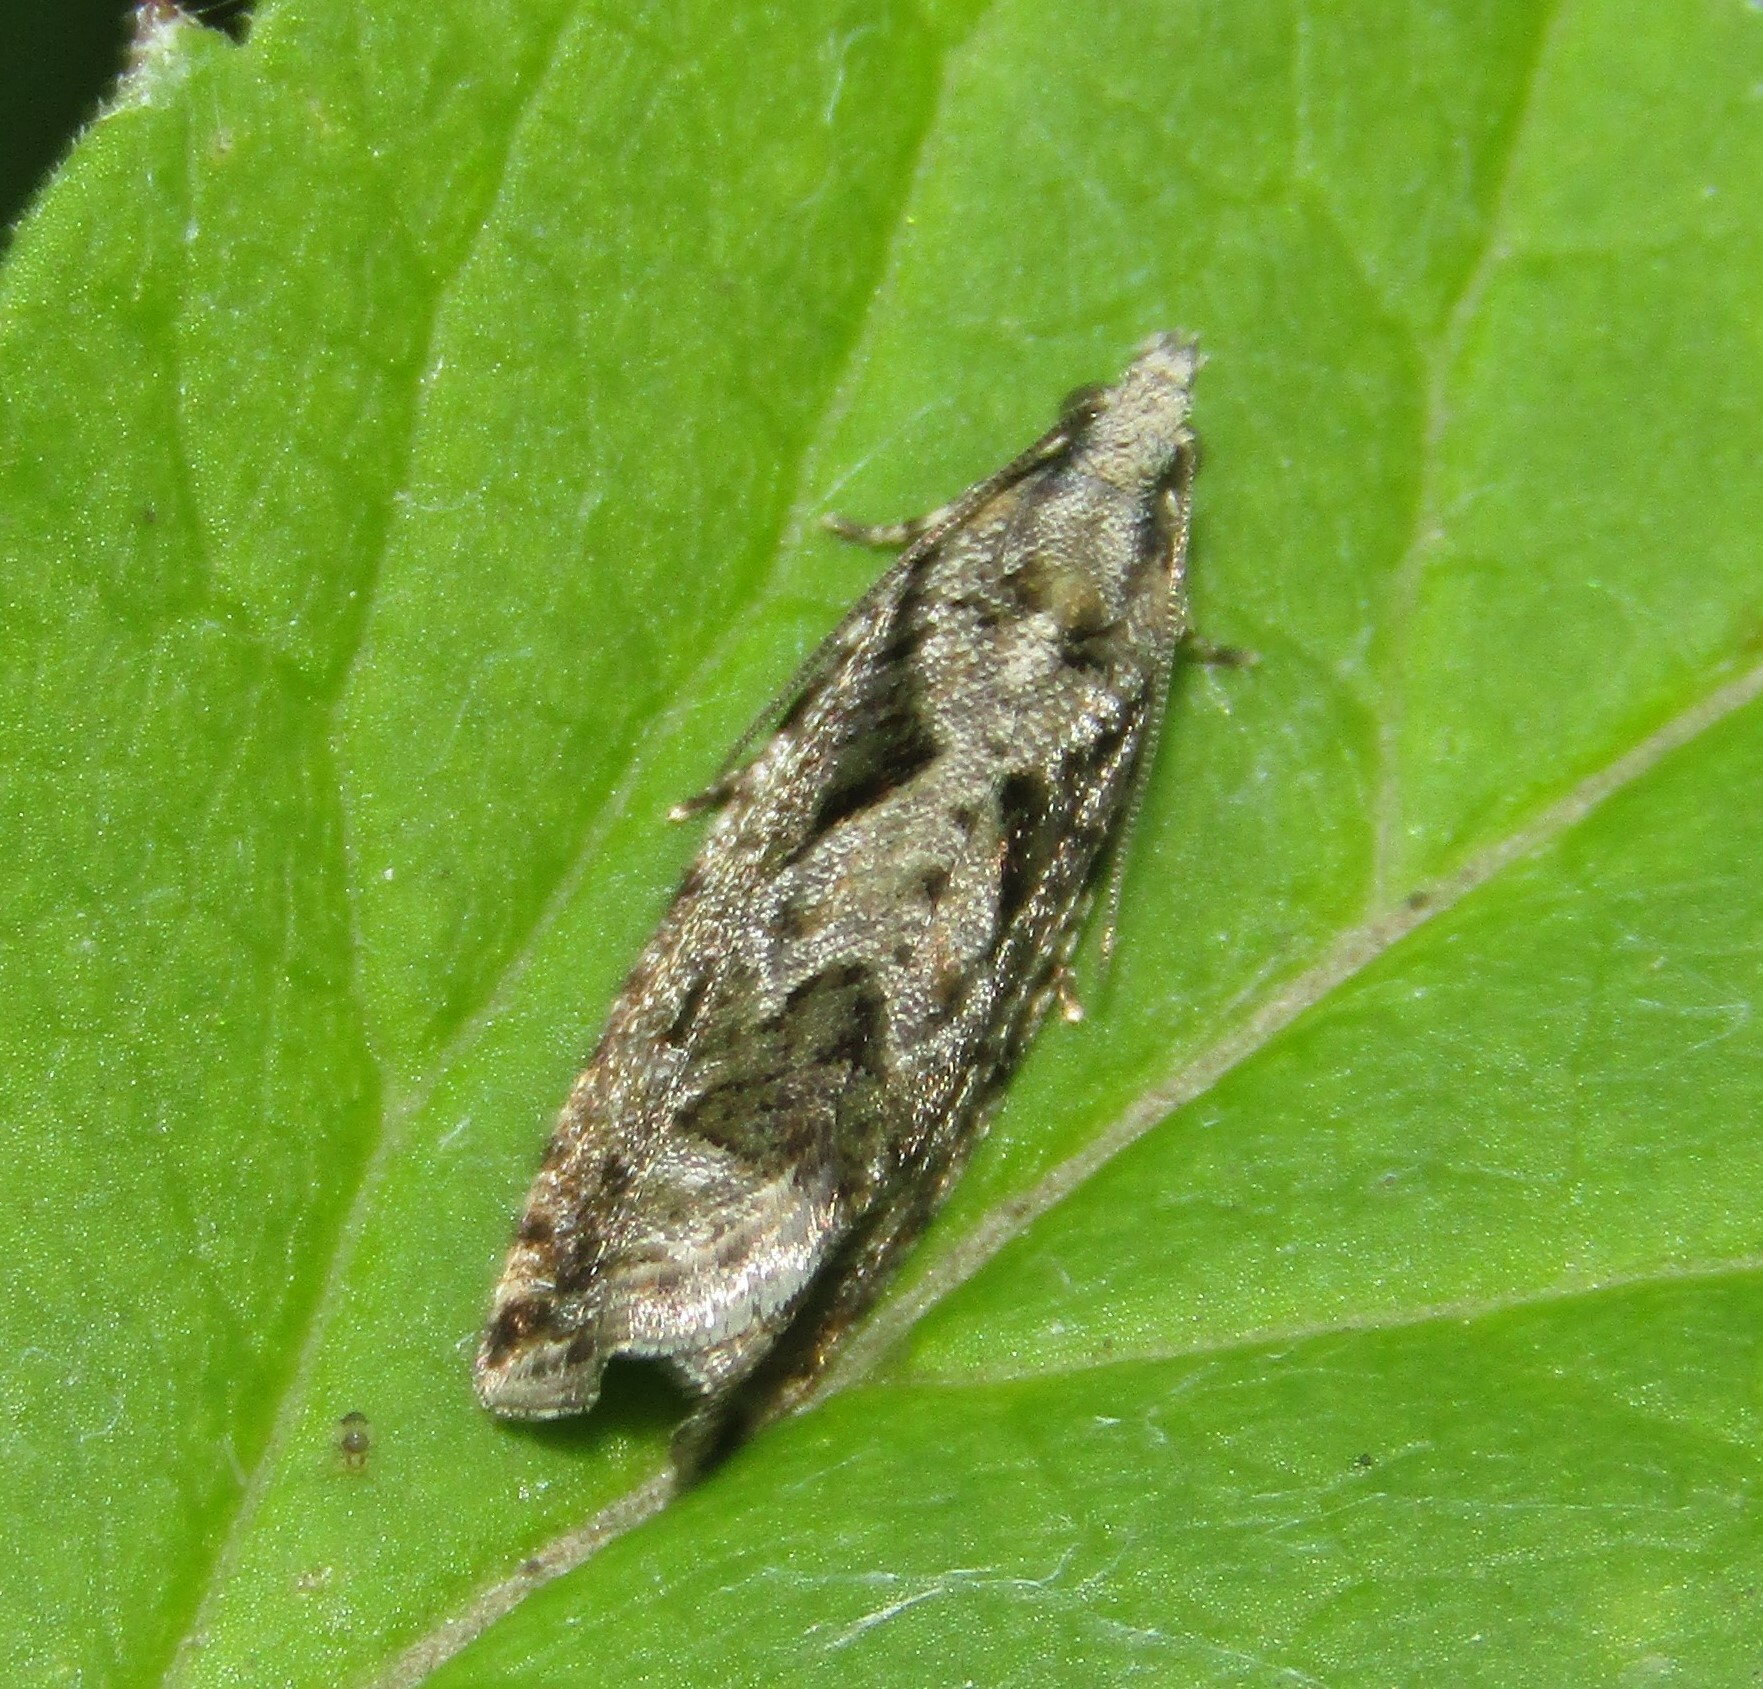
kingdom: Animalia
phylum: Arthropoda
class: Insecta
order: Lepidoptera
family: Tortricidae
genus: Zeiraphera
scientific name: Zeiraphera isertana
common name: Cock's-head bell
